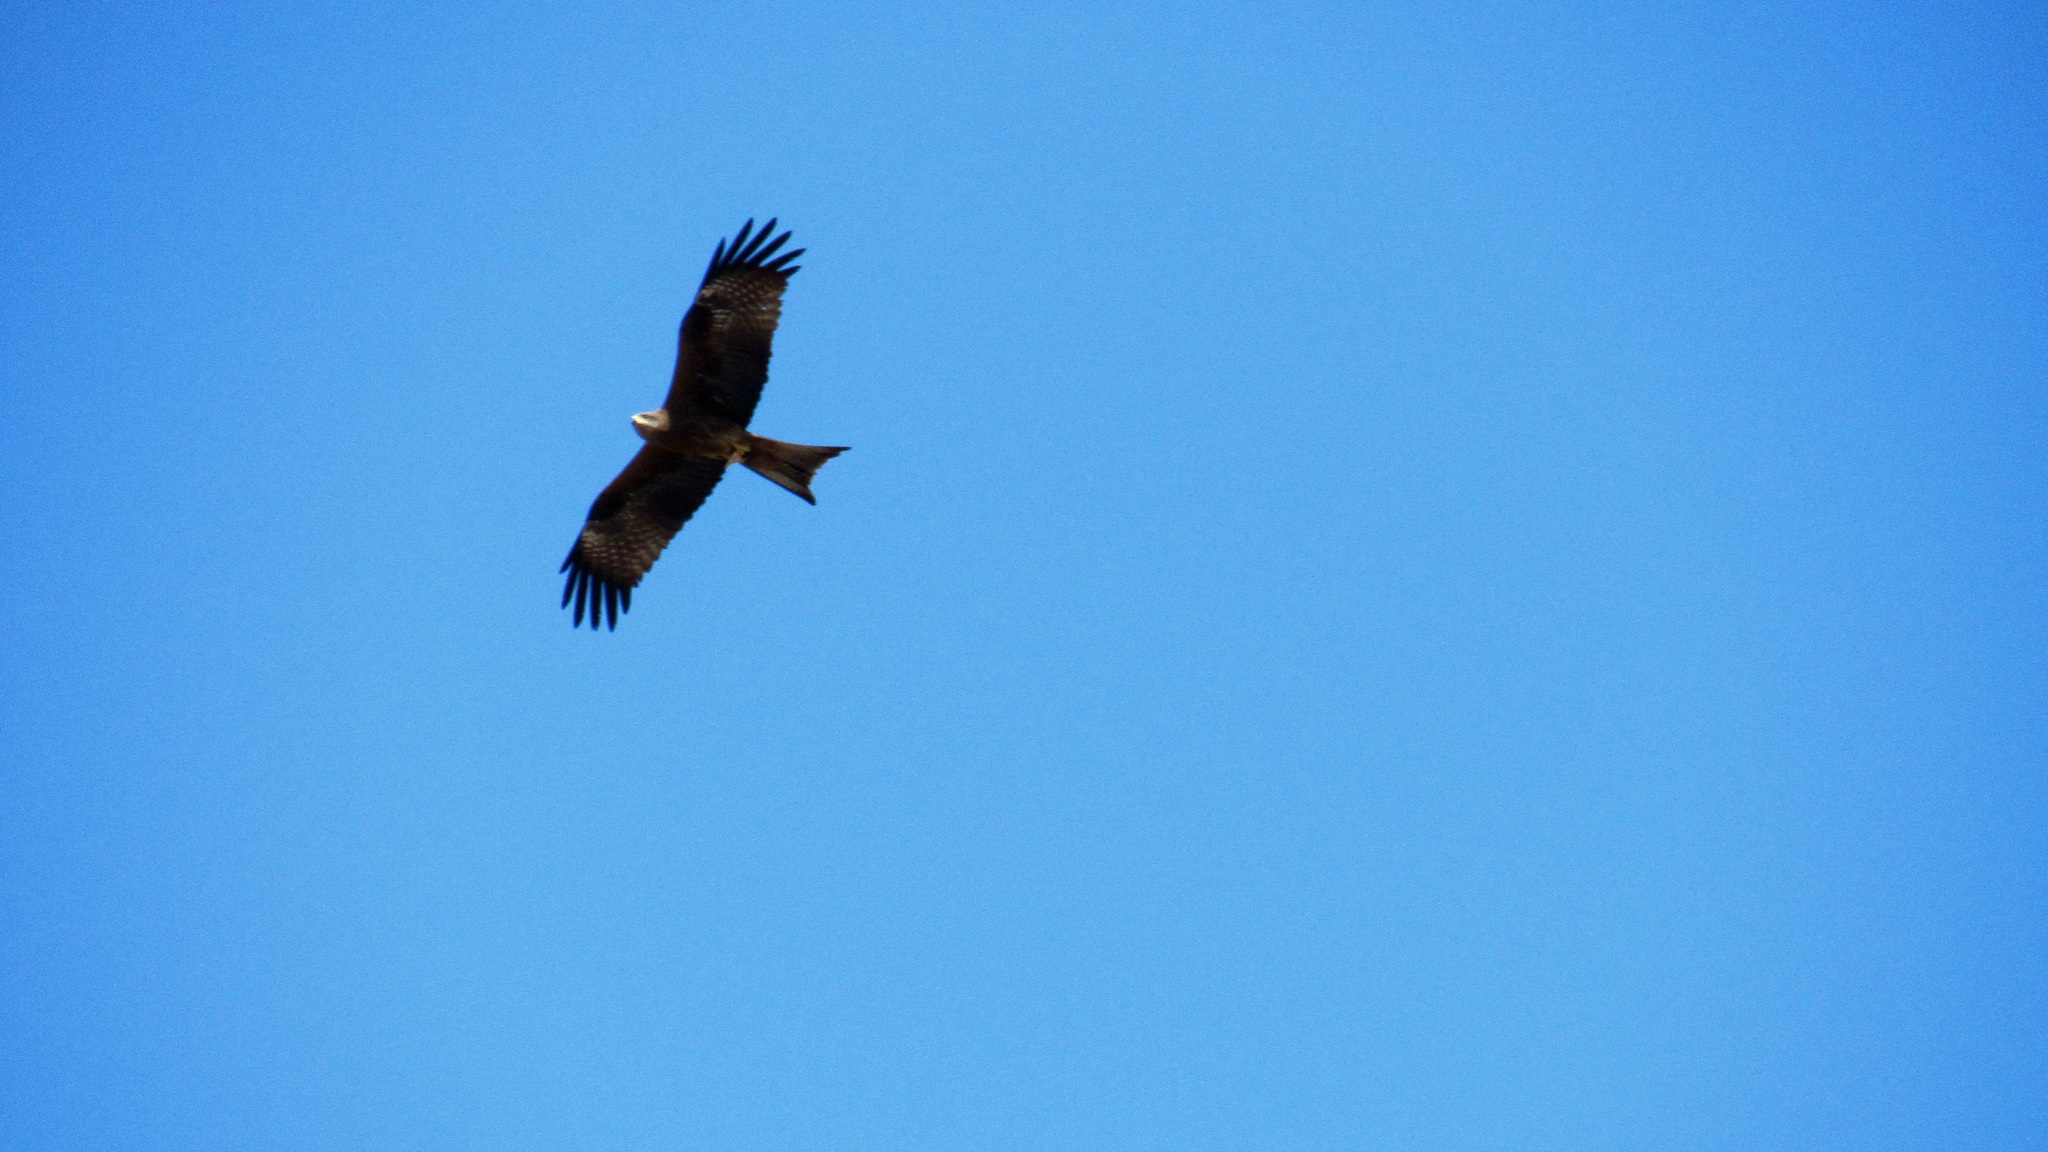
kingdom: Animalia
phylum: Chordata
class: Aves
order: Accipitriformes
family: Accipitridae
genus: Milvus
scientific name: Milvus migrans
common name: Black kite
